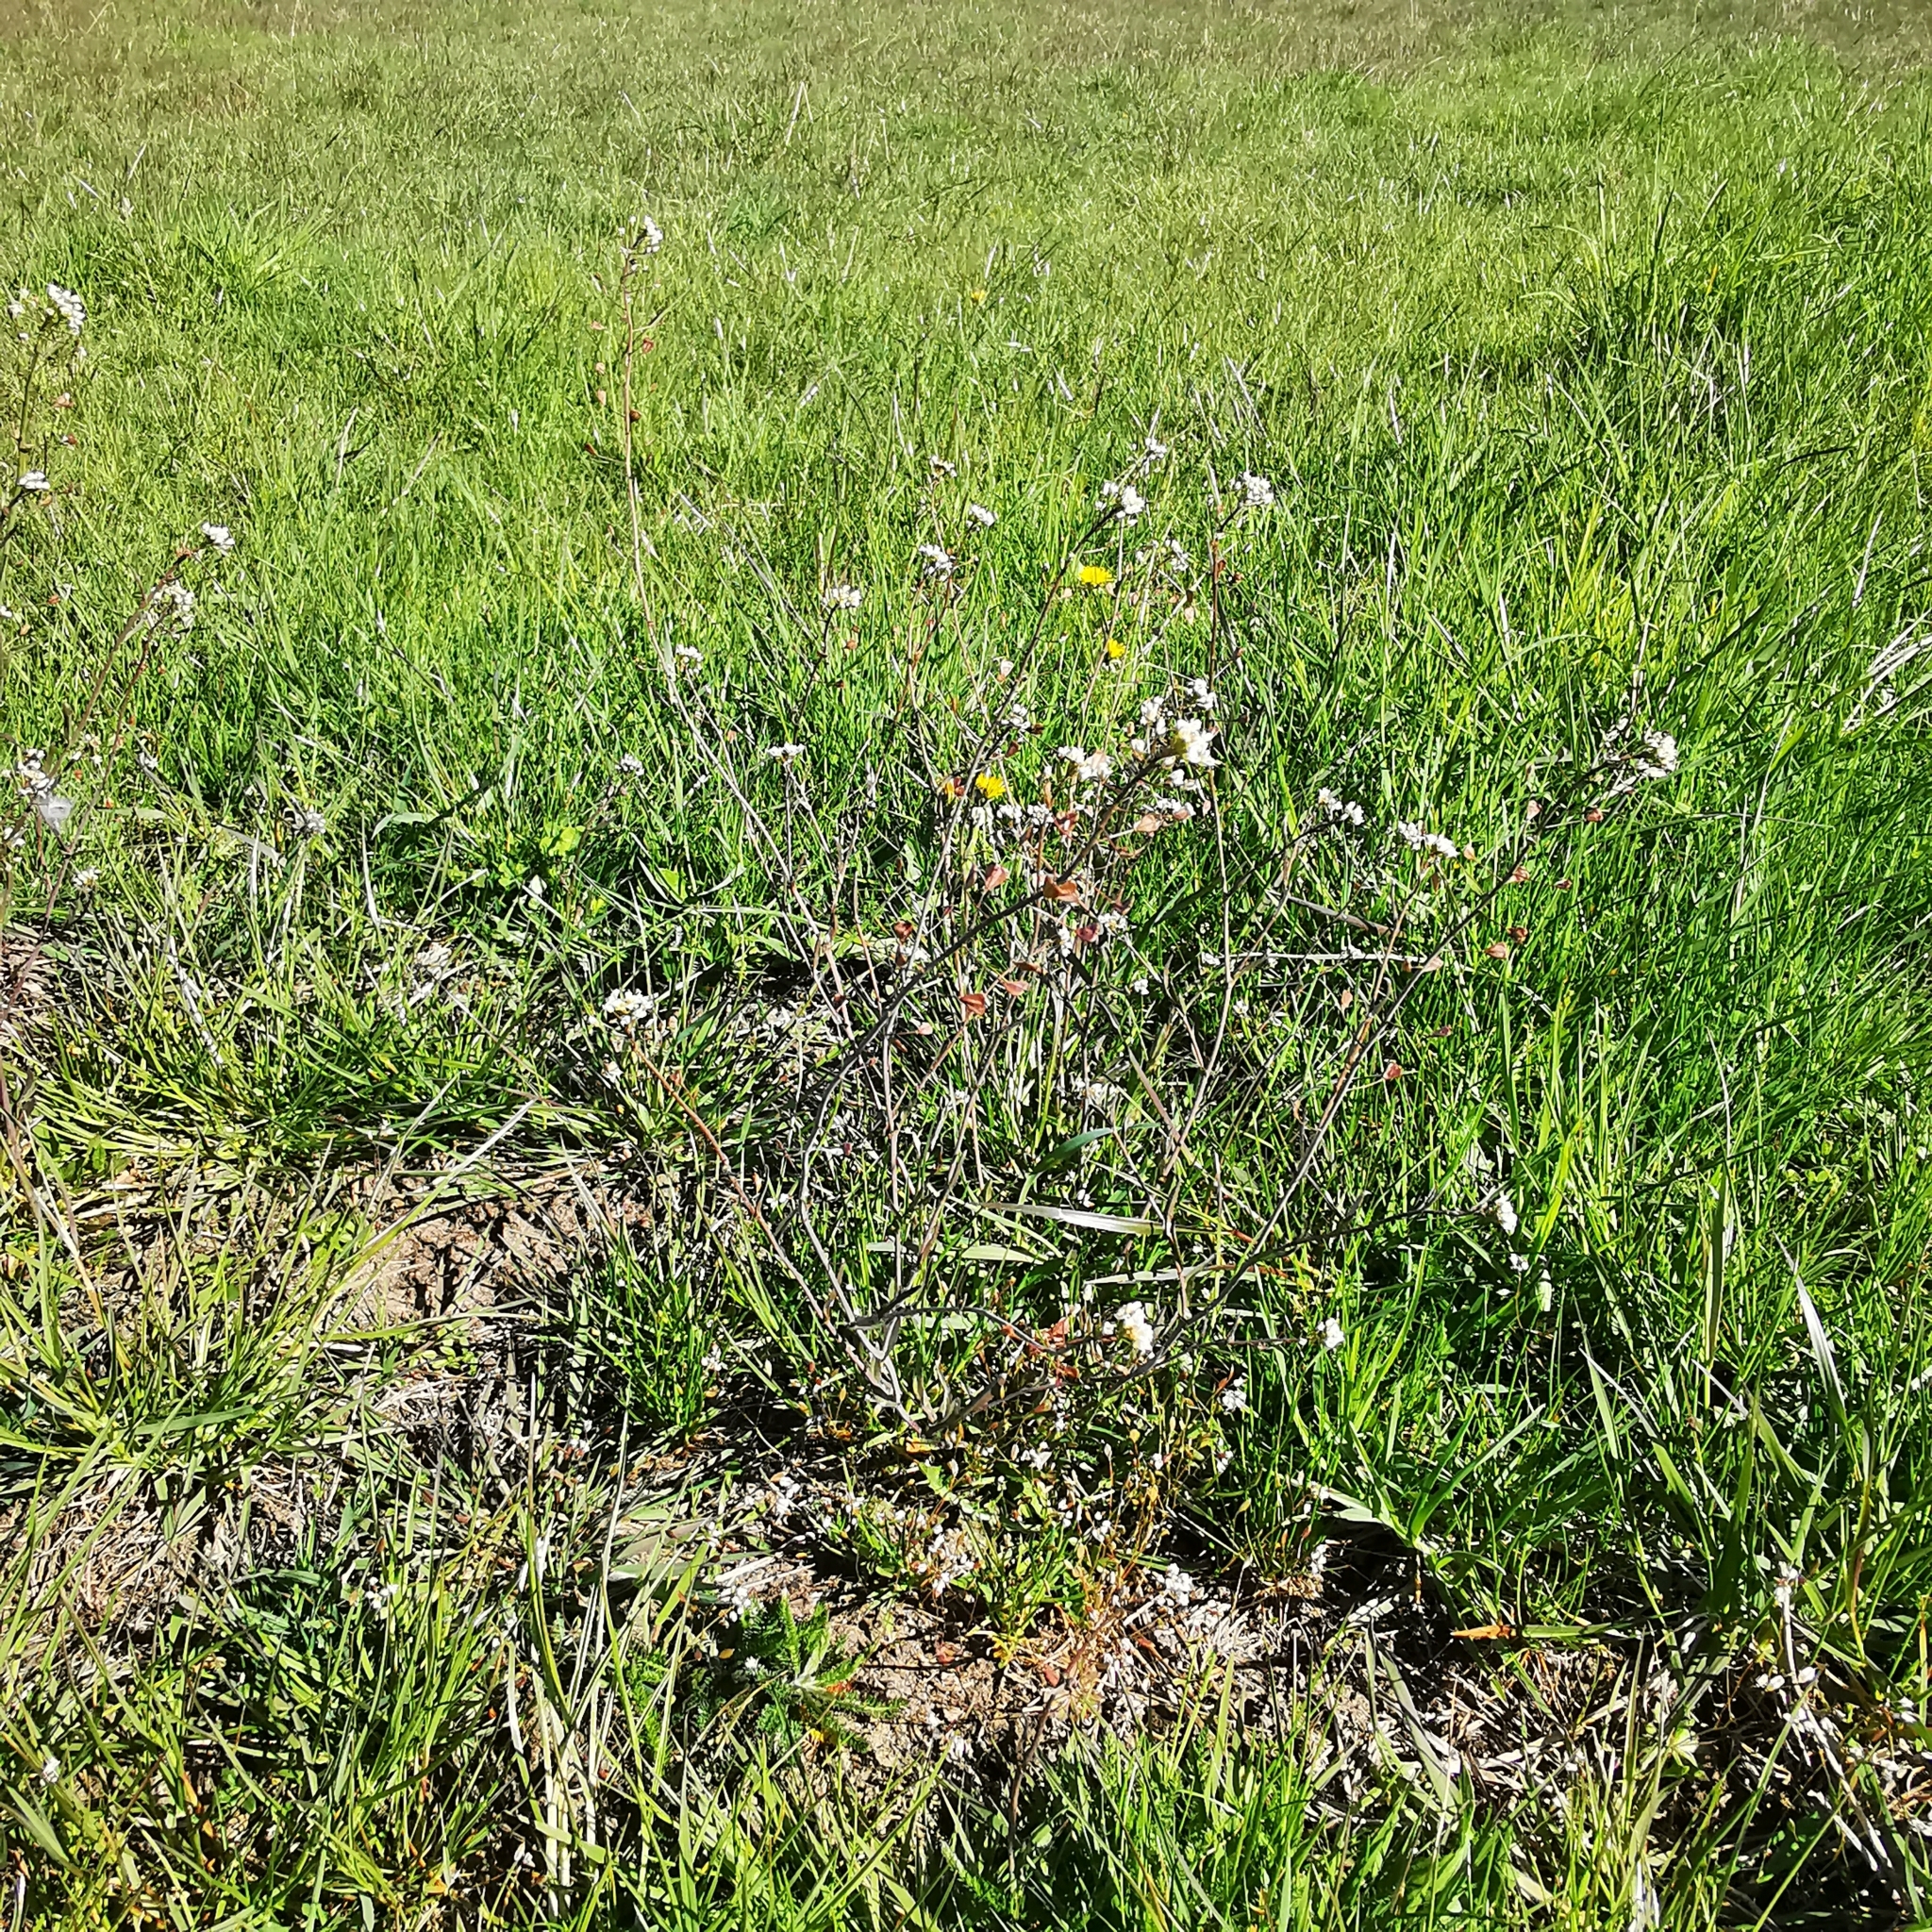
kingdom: Plantae
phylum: Tracheophyta
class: Magnoliopsida
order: Brassicales
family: Brassicaceae
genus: Capsella
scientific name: Capsella bursa-pastoris
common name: Shepherd's purse
